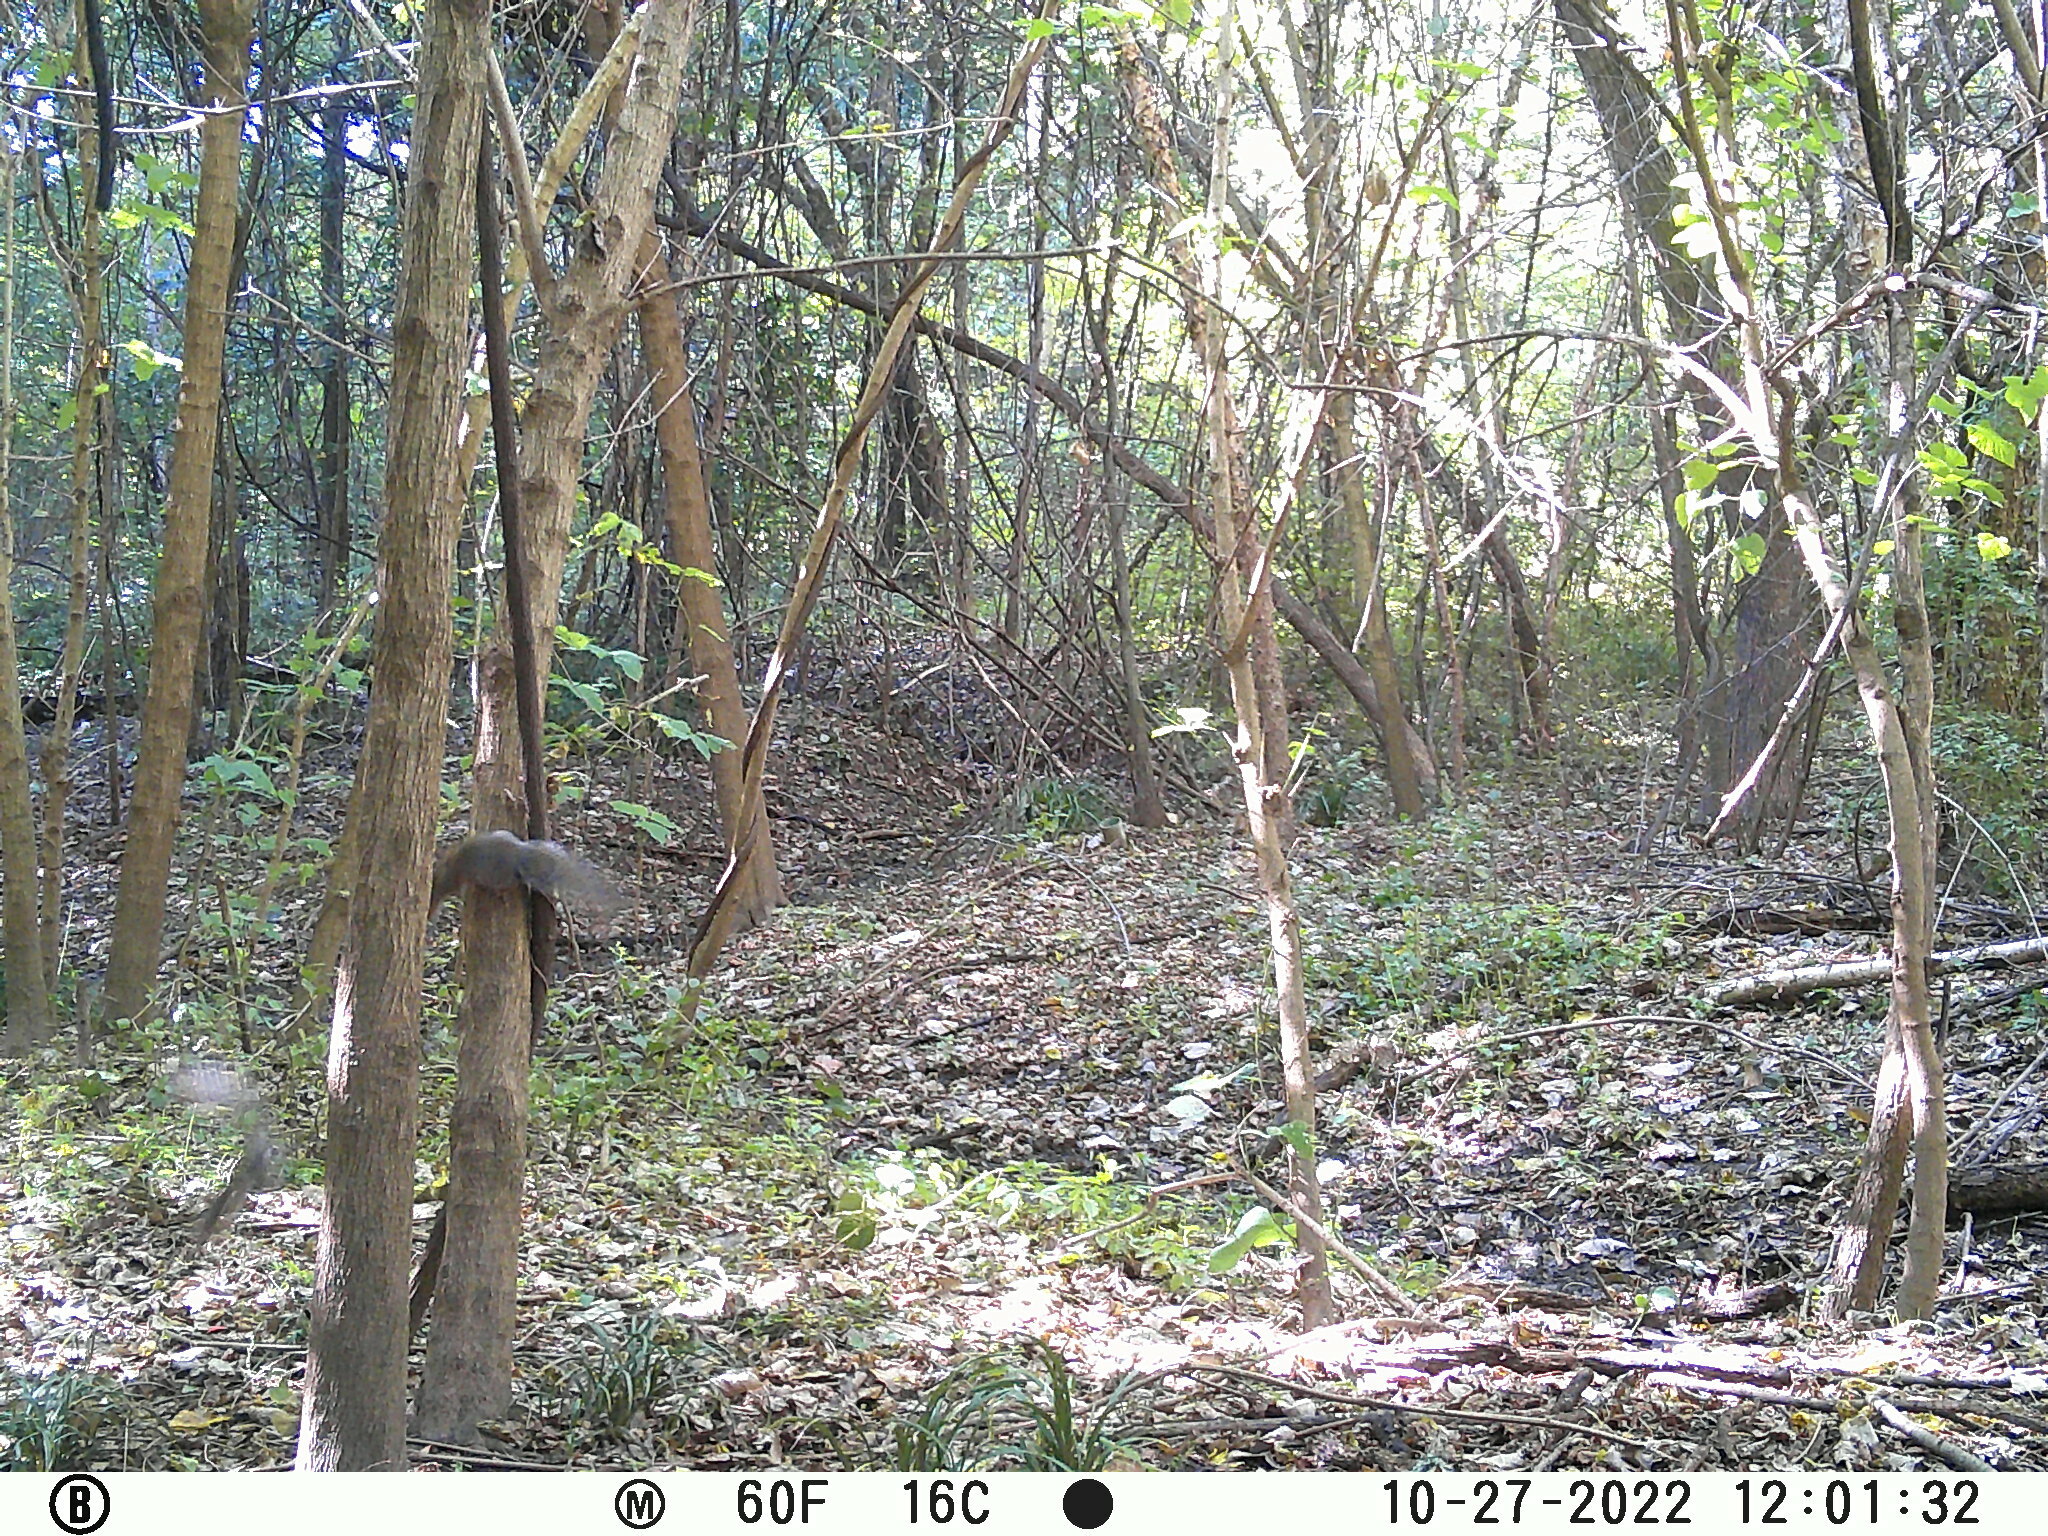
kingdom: Animalia
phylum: Chordata
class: Mammalia
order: Rodentia
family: Sciuridae
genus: Sciurus
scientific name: Sciurus carolinensis
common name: Eastern gray squirrel
